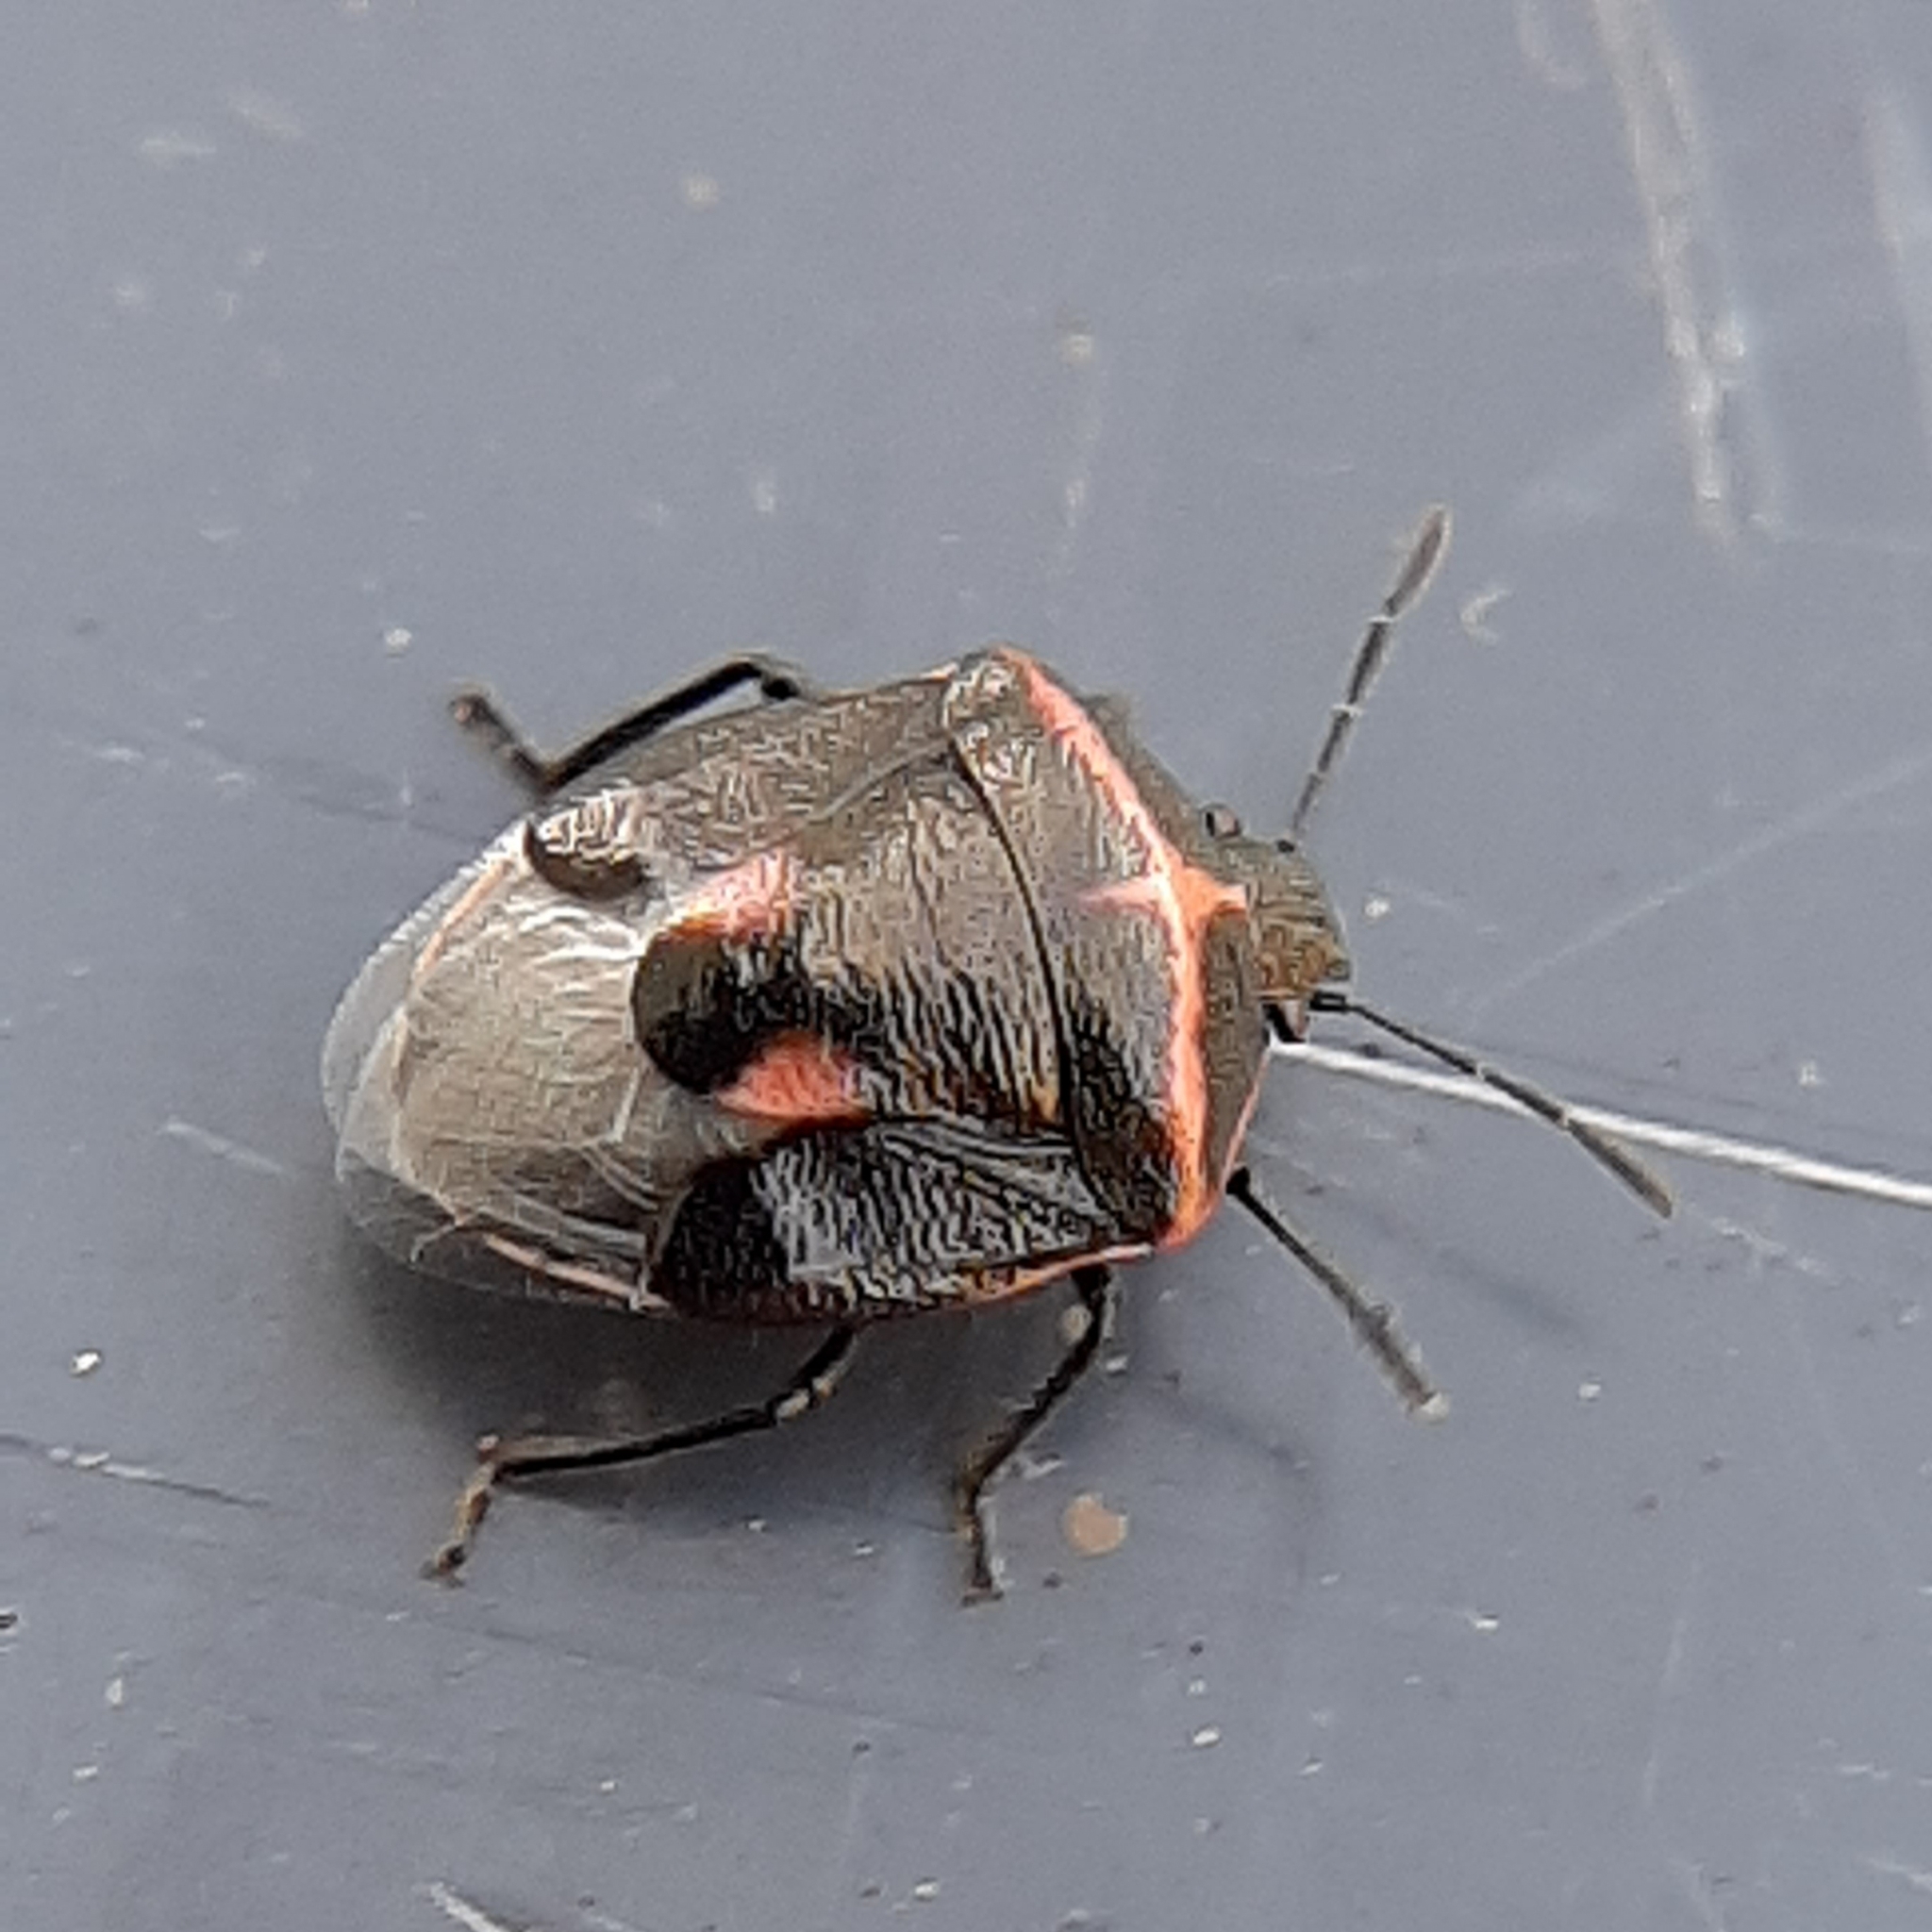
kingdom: Animalia
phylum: Arthropoda
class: Insecta
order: Hemiptera
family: Pentatomidae
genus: Cosmopepla
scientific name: Cosmopepla lintneriana
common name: Twice-stabbed stink bug
